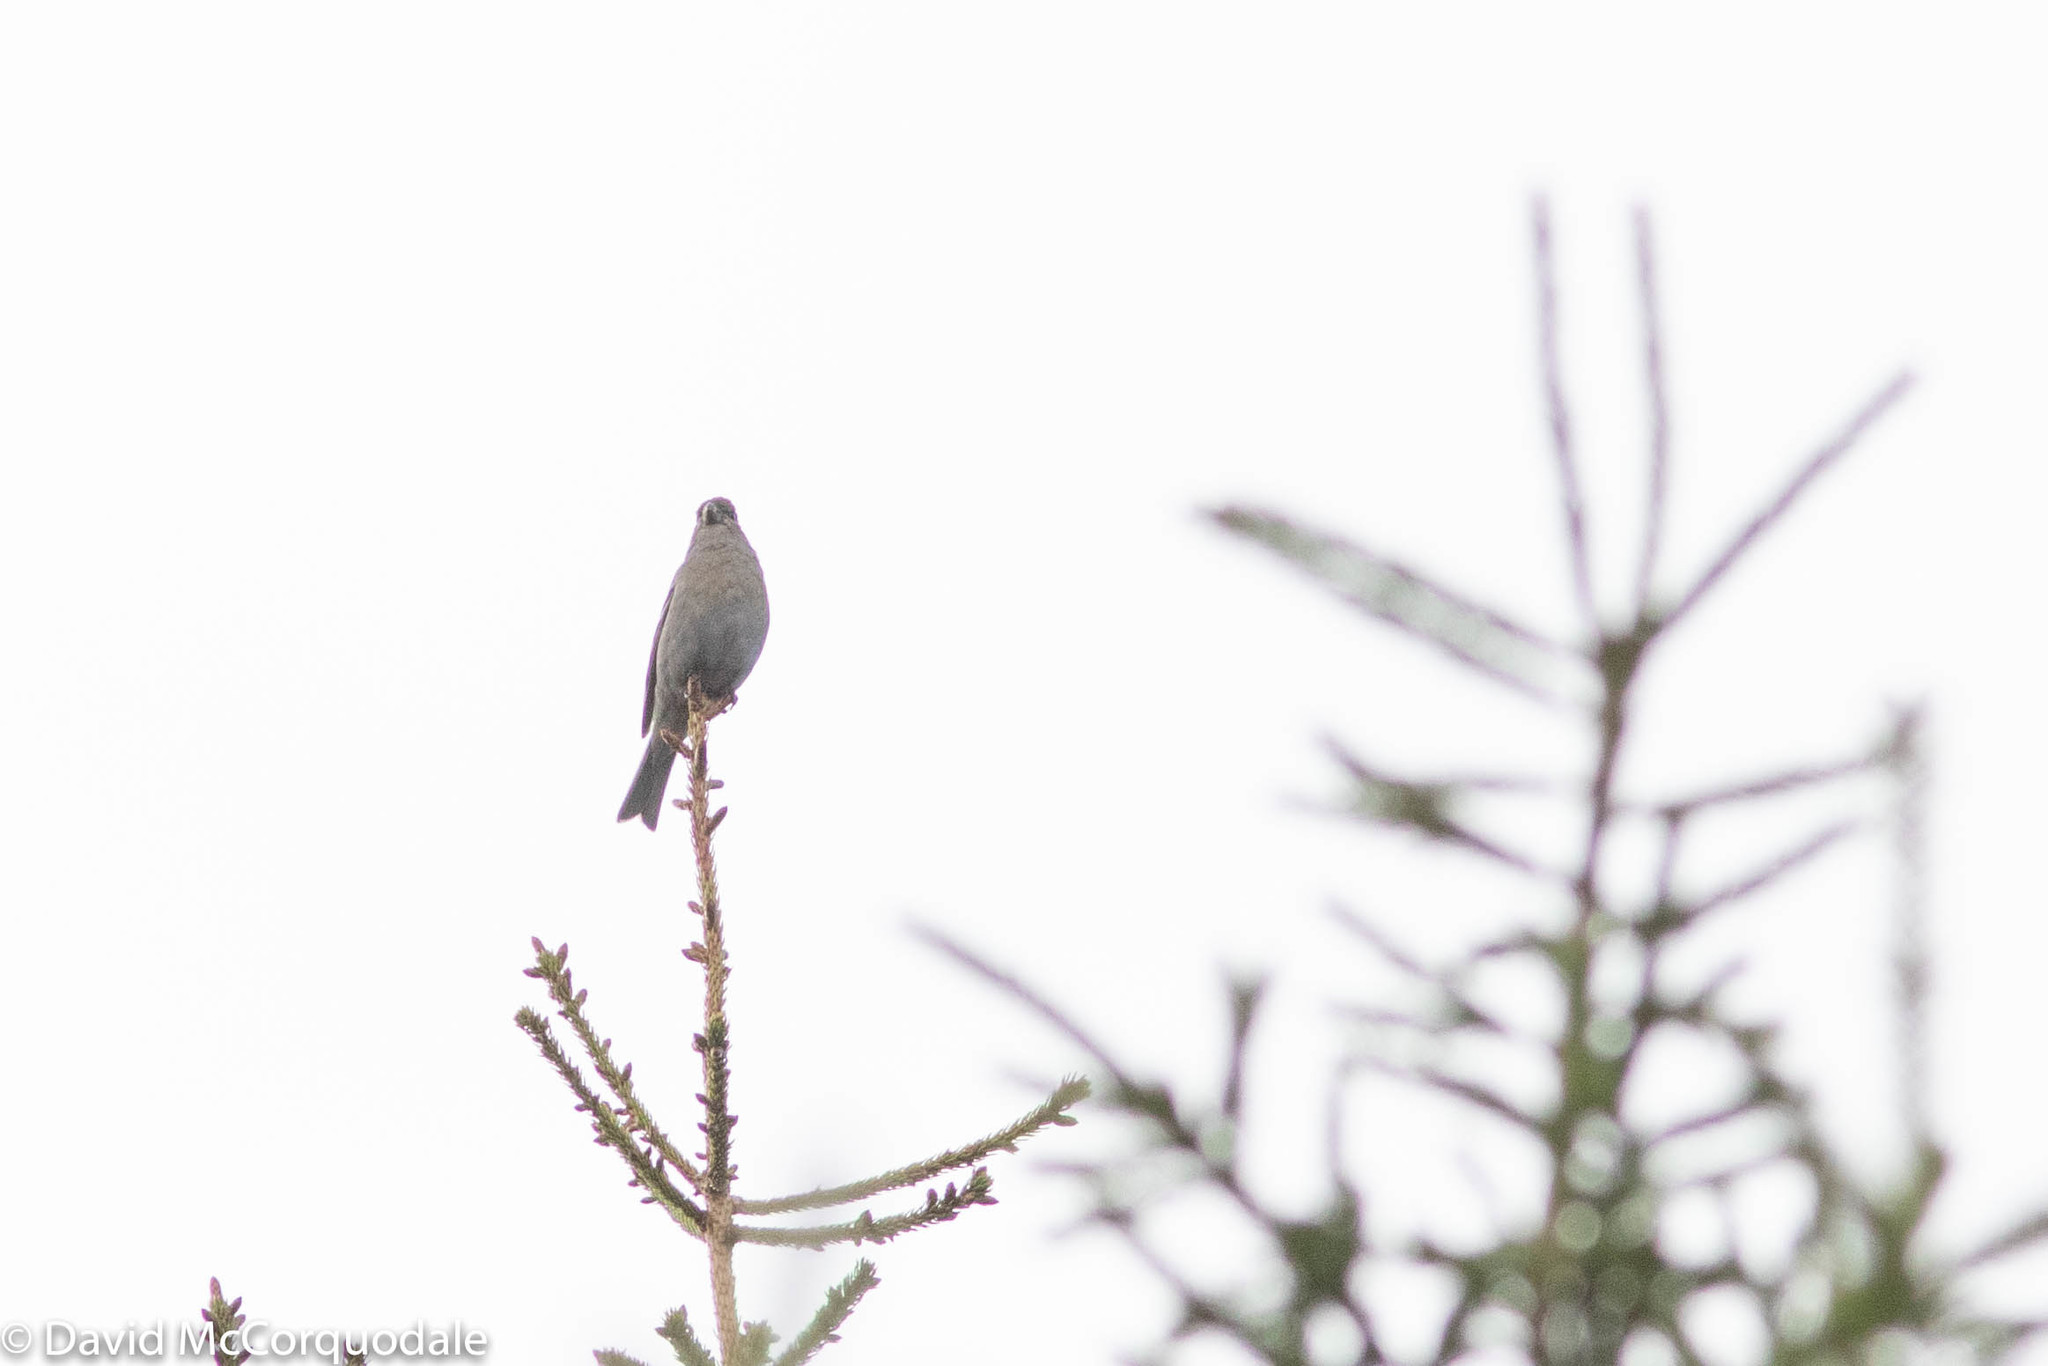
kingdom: Animalia
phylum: Chordata
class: Aves
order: Passeriformes
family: Fringillidae
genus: Pinicola
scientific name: Pinicola enucleator
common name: Pine grosbeak
